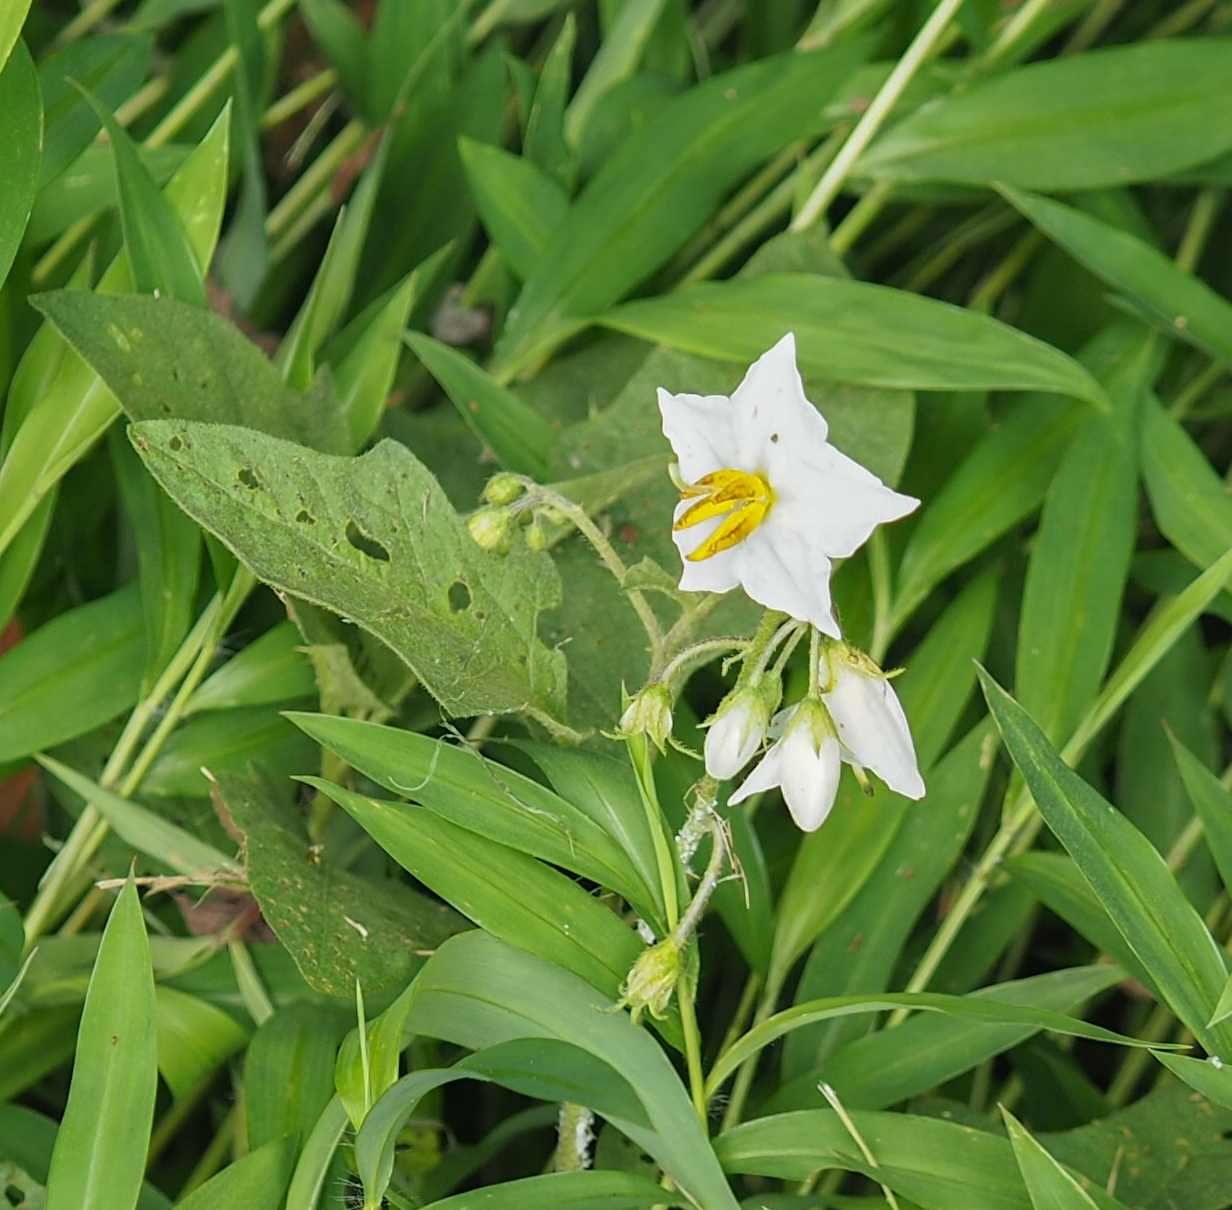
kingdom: Plantae
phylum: Tracheophyta
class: Magnoliopsida
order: Solanales
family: Solanaceae
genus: Solanum
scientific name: Solanum carolinense
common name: Horse-nettle
